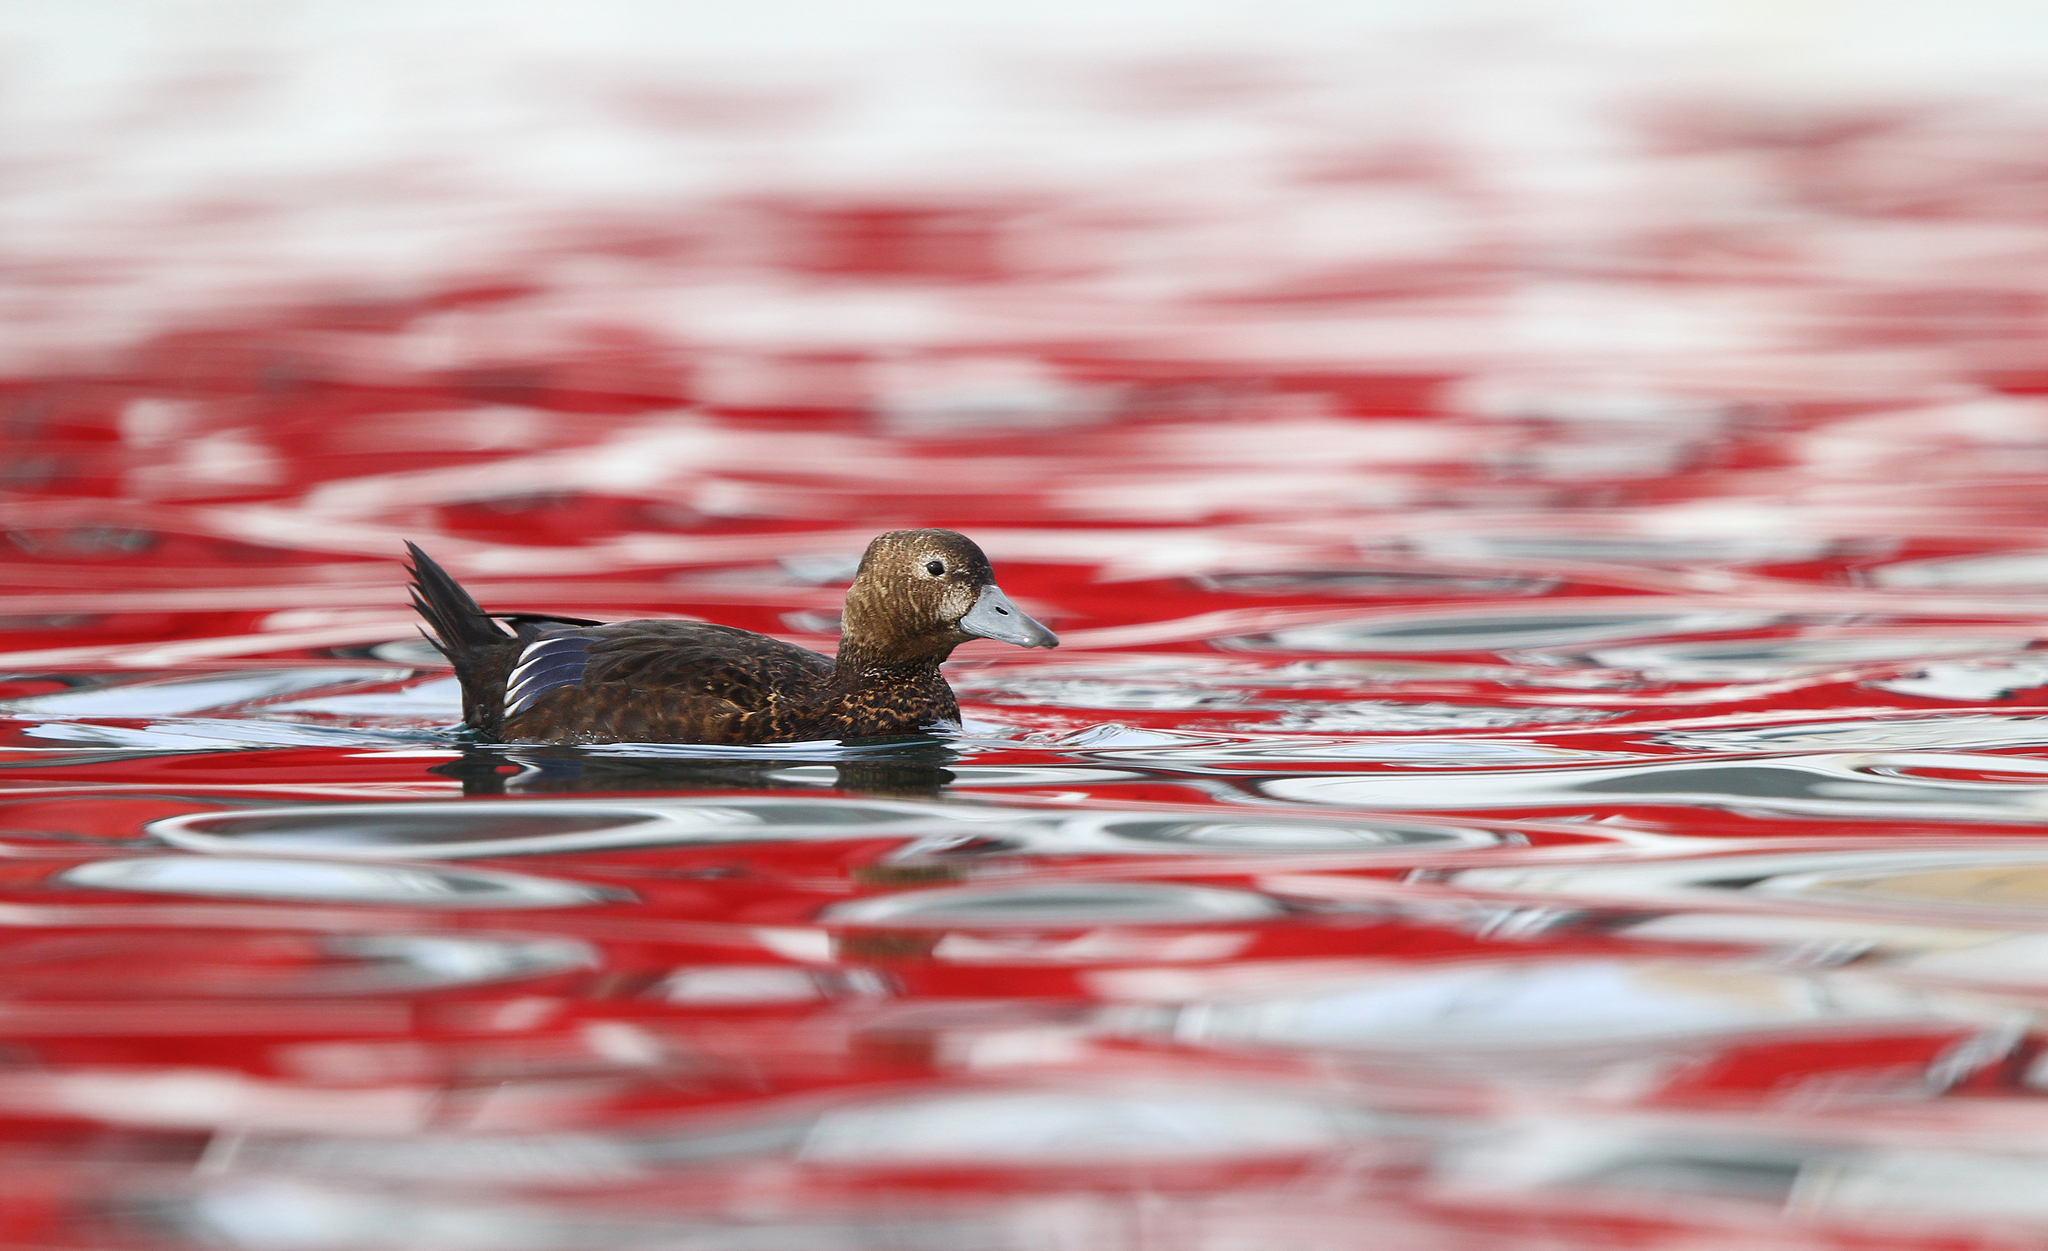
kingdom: Animalia
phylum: Chordata
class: Aves
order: Anseriformes
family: Anatidae
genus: Polysticta
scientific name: Polysticta stelleri
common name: Steller's eider
